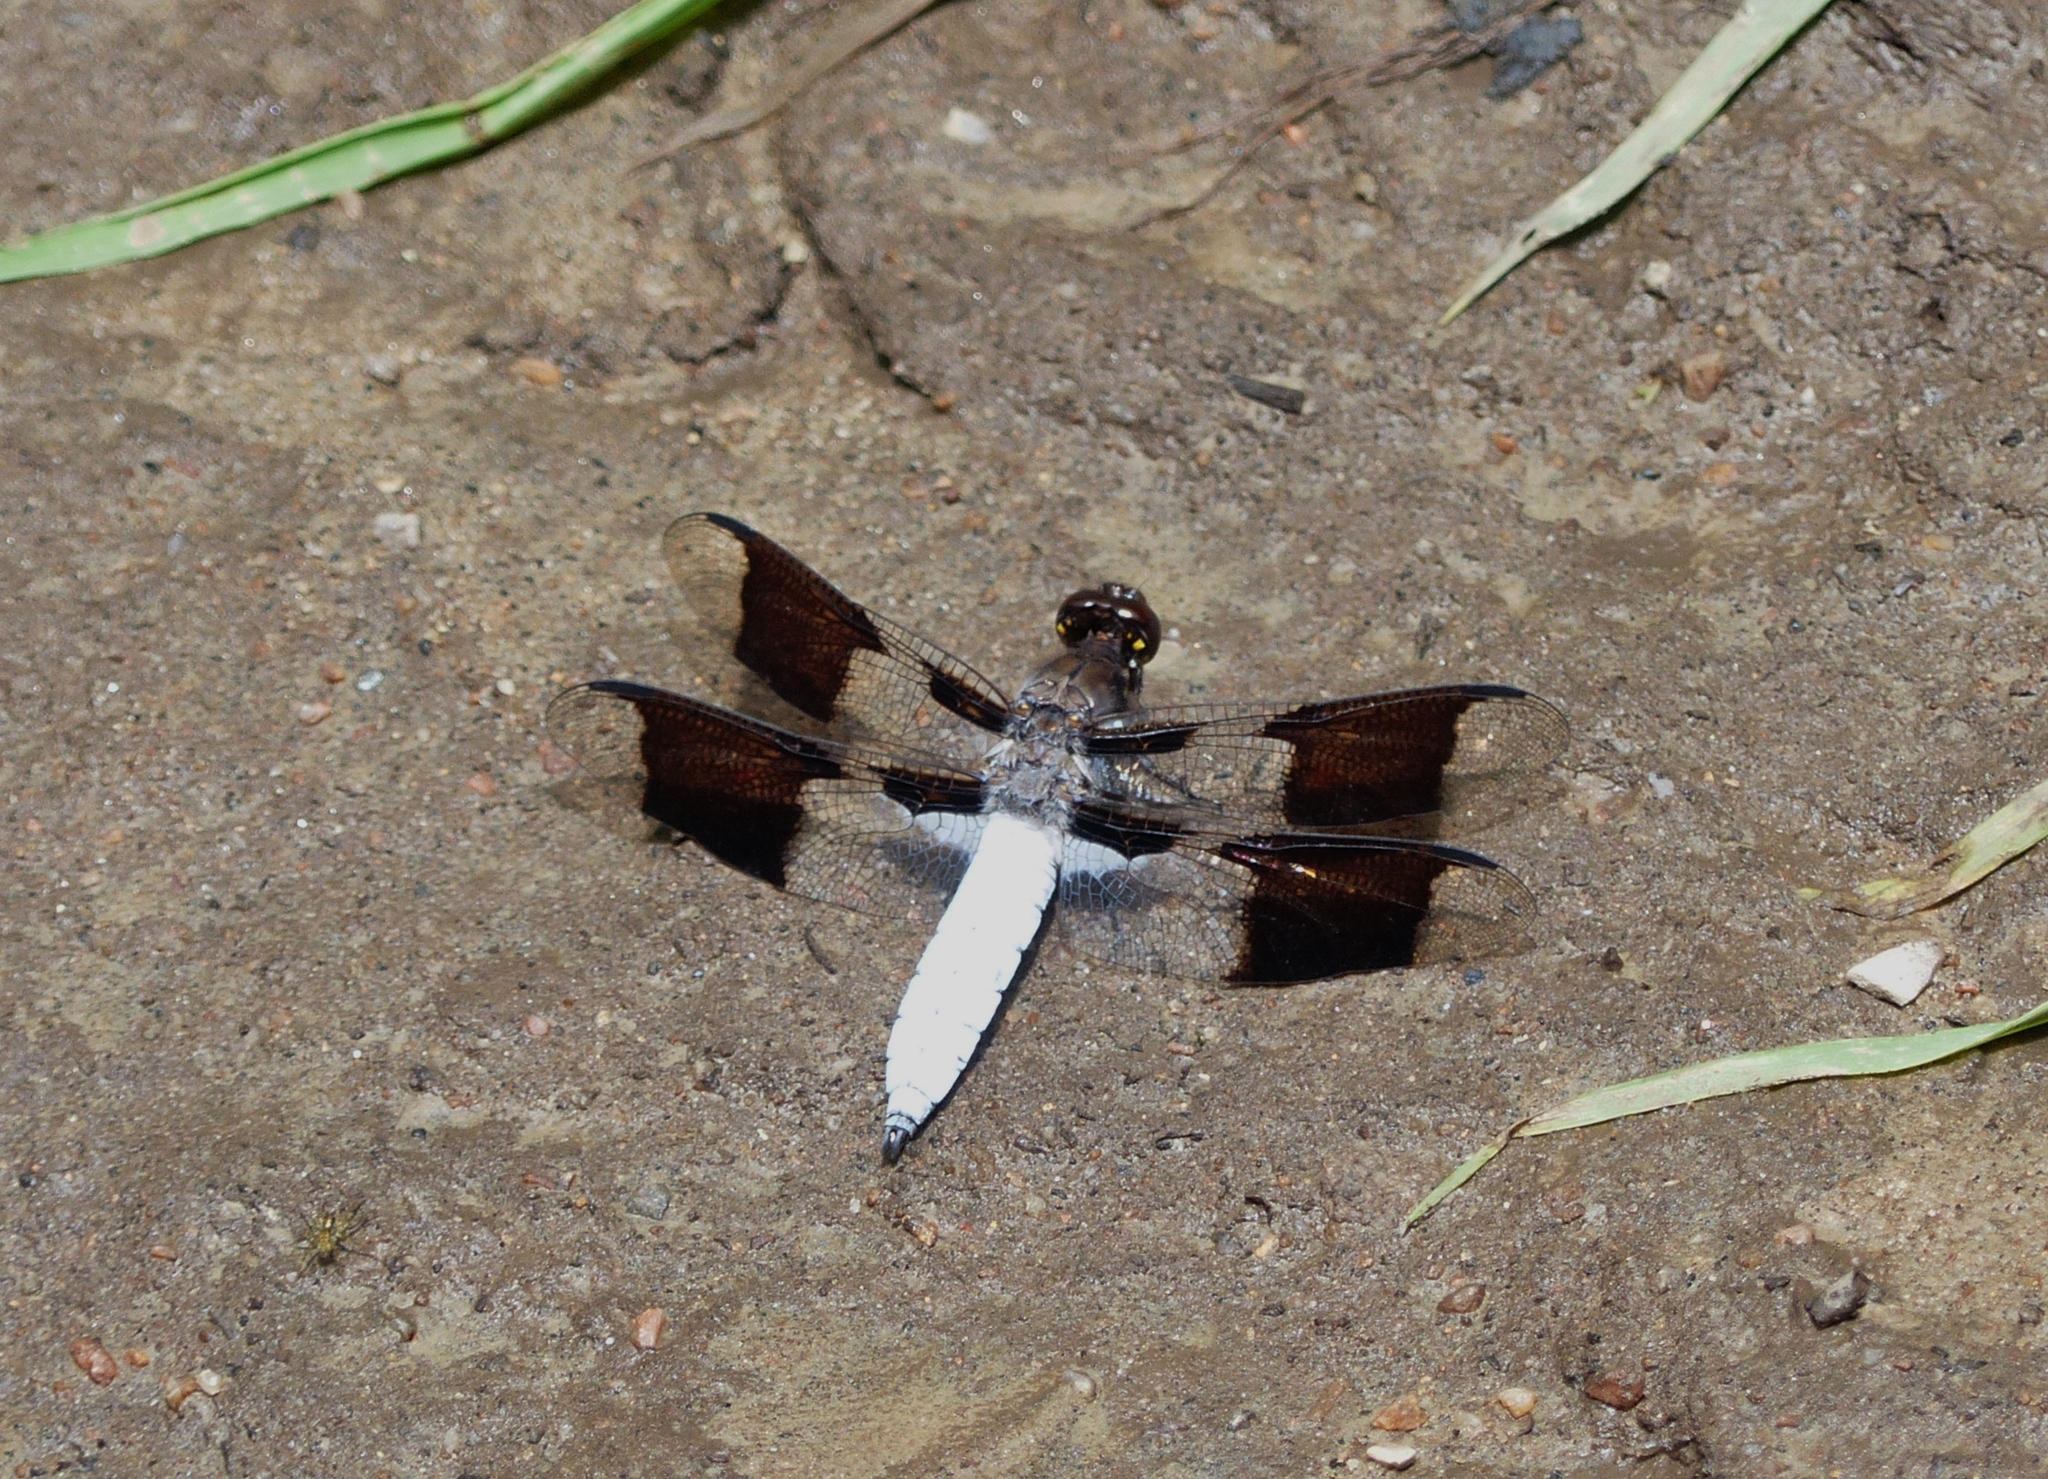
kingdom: Animalia
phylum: Arthropoda
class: Insecta
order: Odonata
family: Libellulidae
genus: Plathemis
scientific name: Plathemis lydia
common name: Common whitetail
